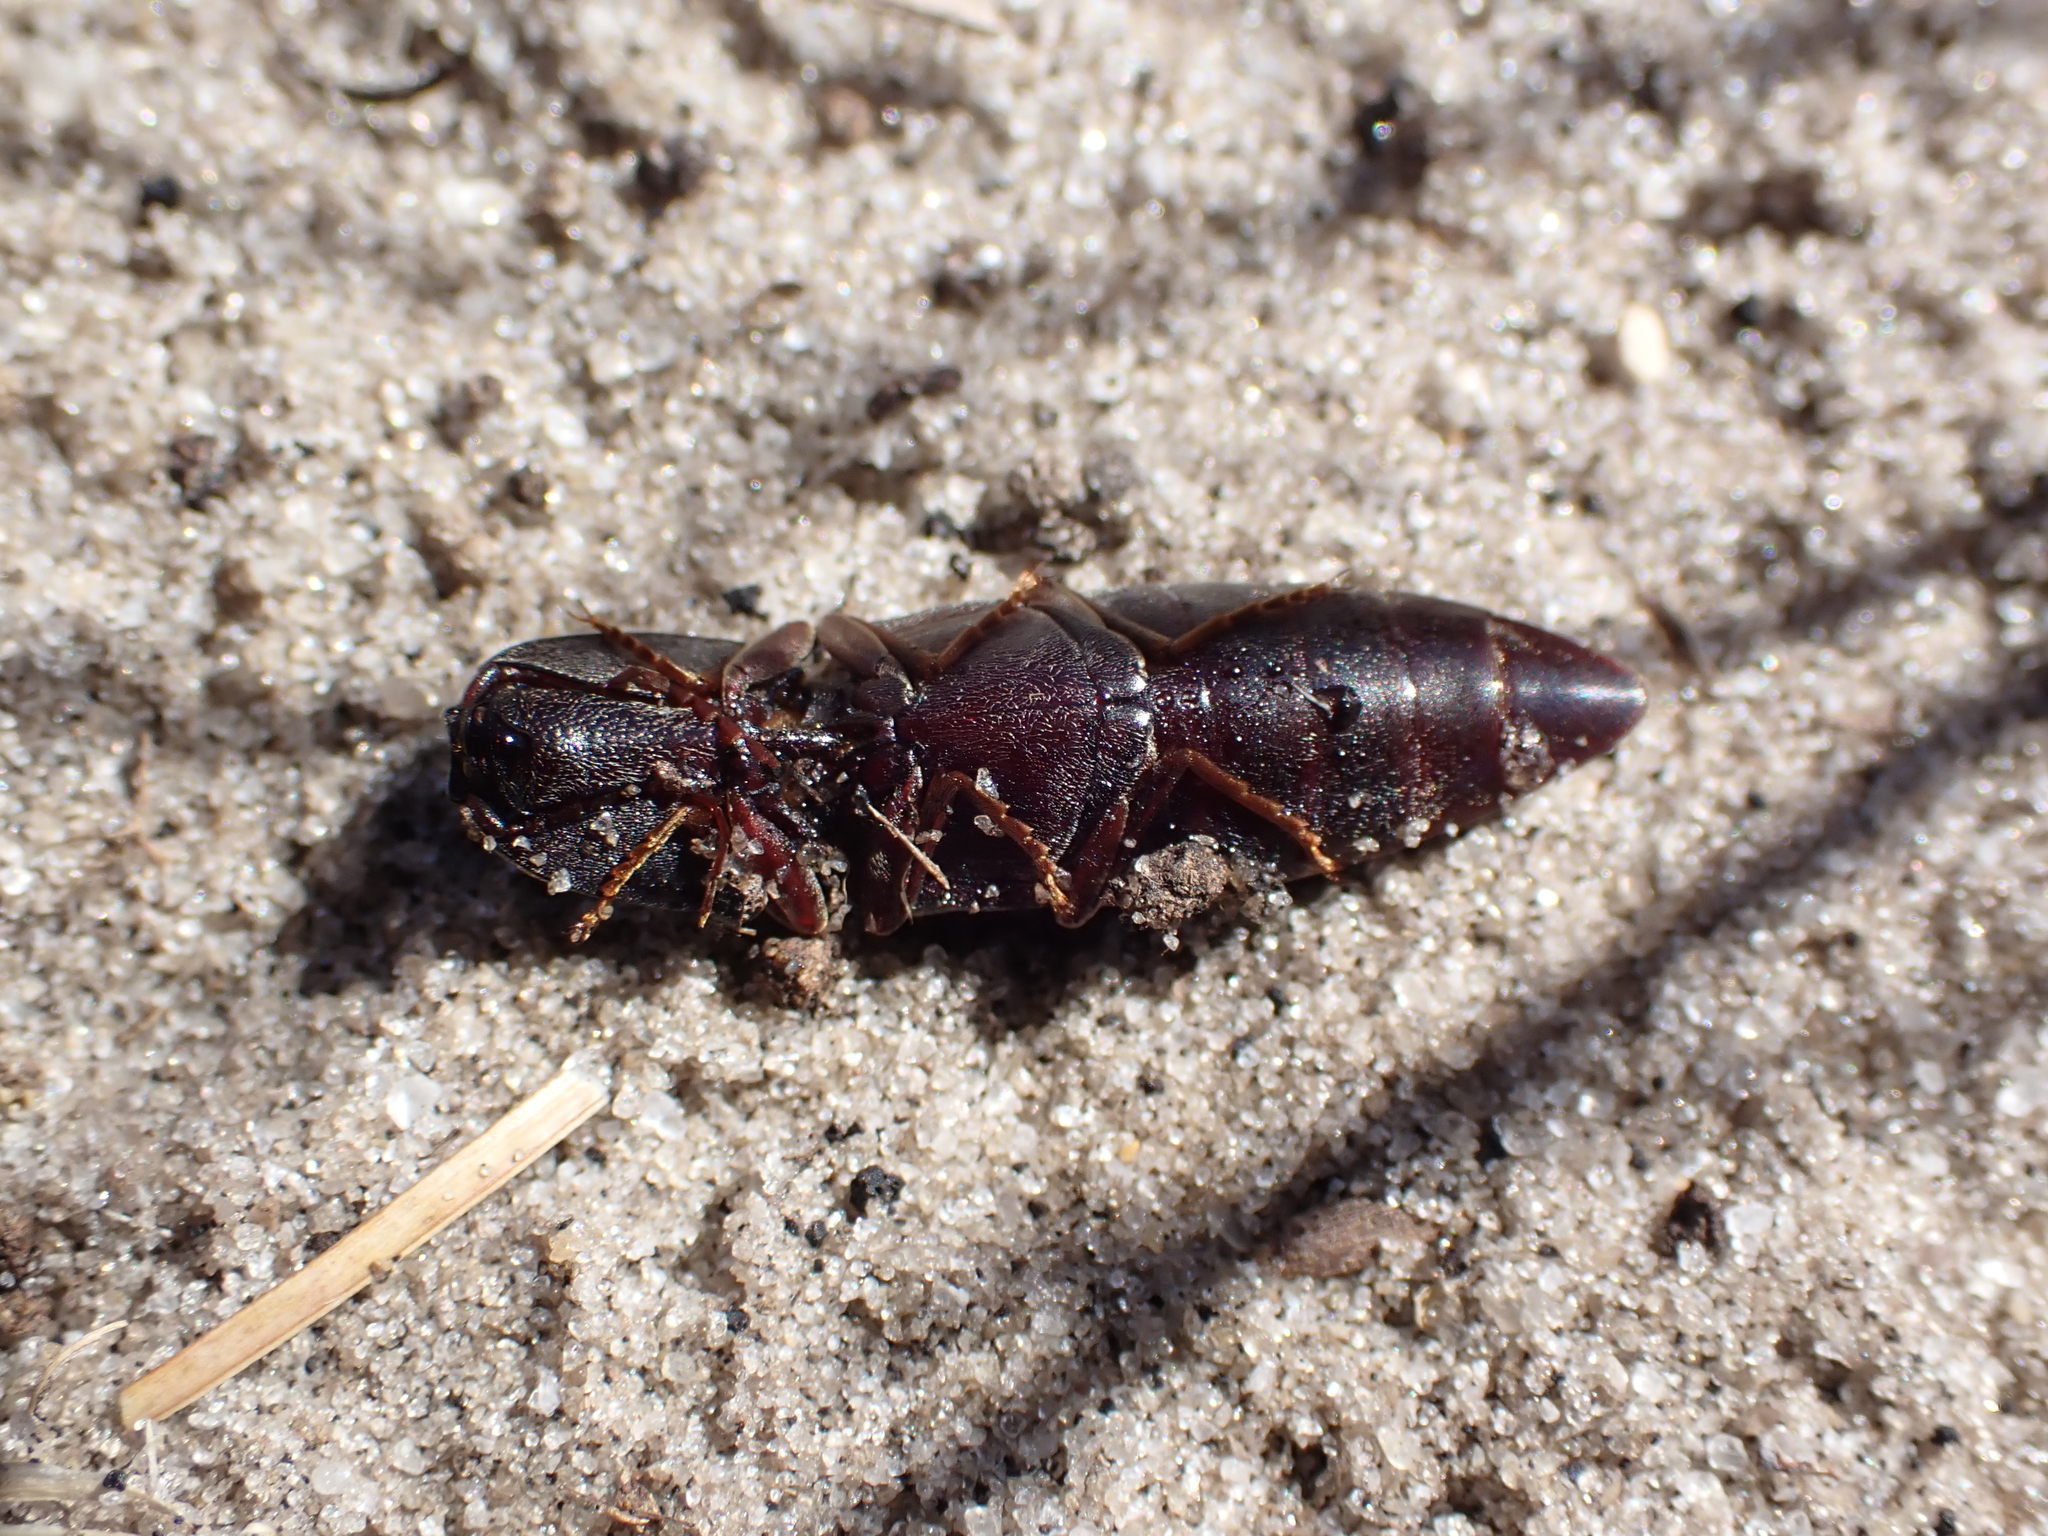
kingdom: Animalia
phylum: Arthropoda
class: Insecta
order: Coleoptera
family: Elateridae
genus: Lanelater
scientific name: Lanelater sallei
